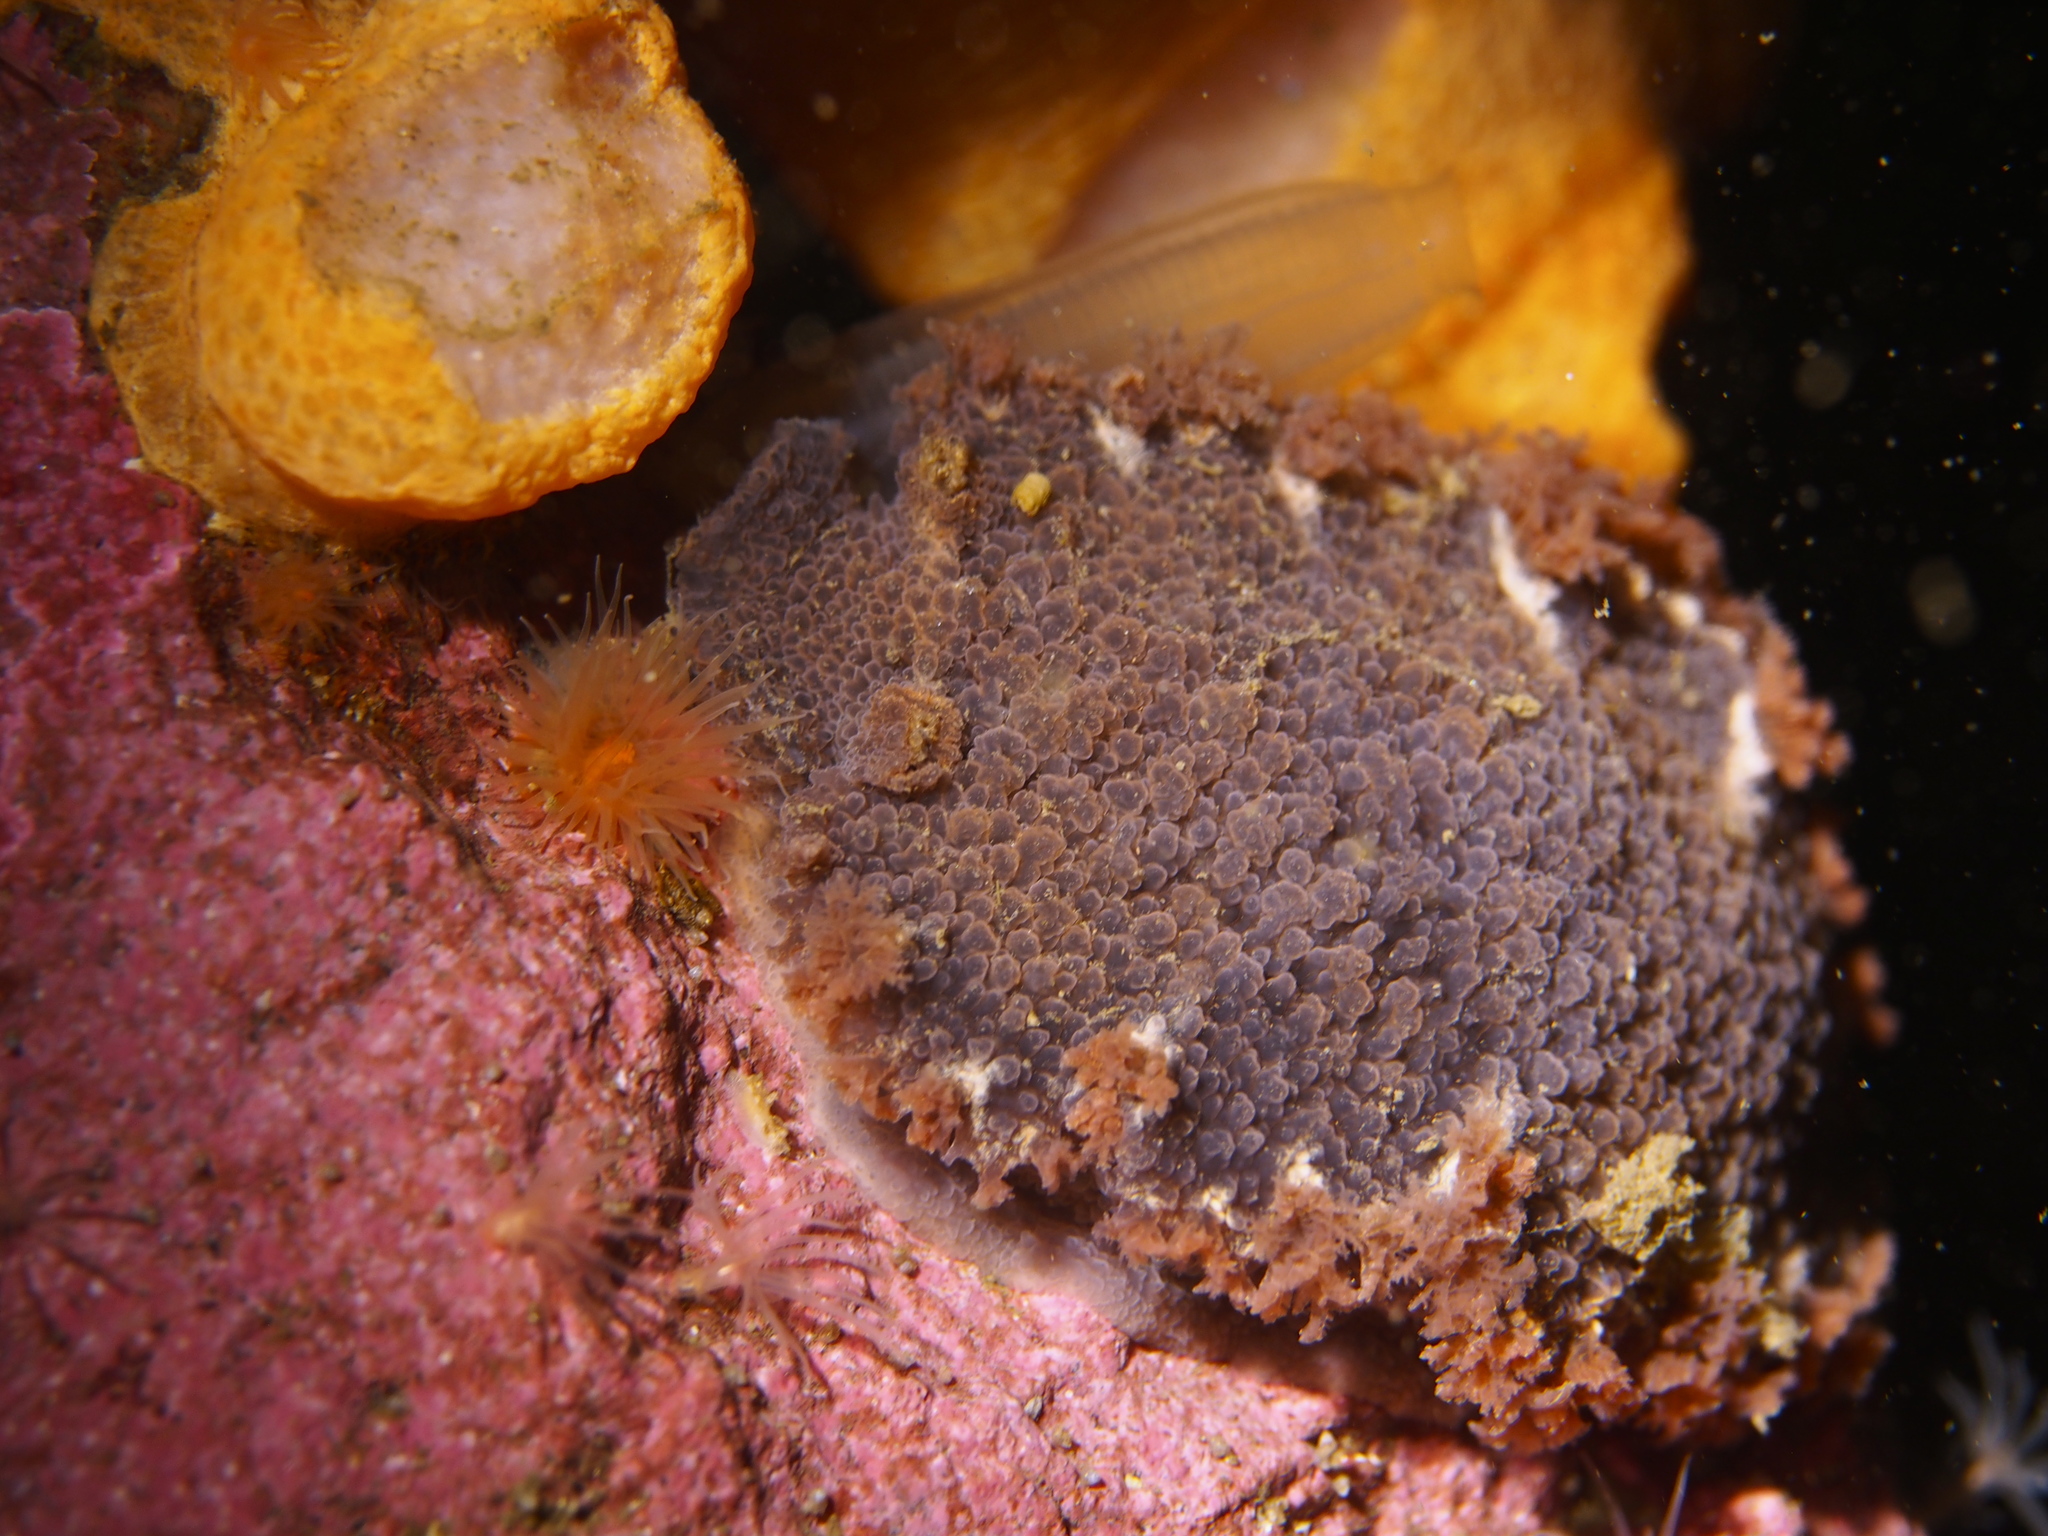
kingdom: Animalia
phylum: Mollusca
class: Gastropoda
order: Nudibranchia
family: Tritoniidae
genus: Tritonia
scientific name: Tritonia hombergii
